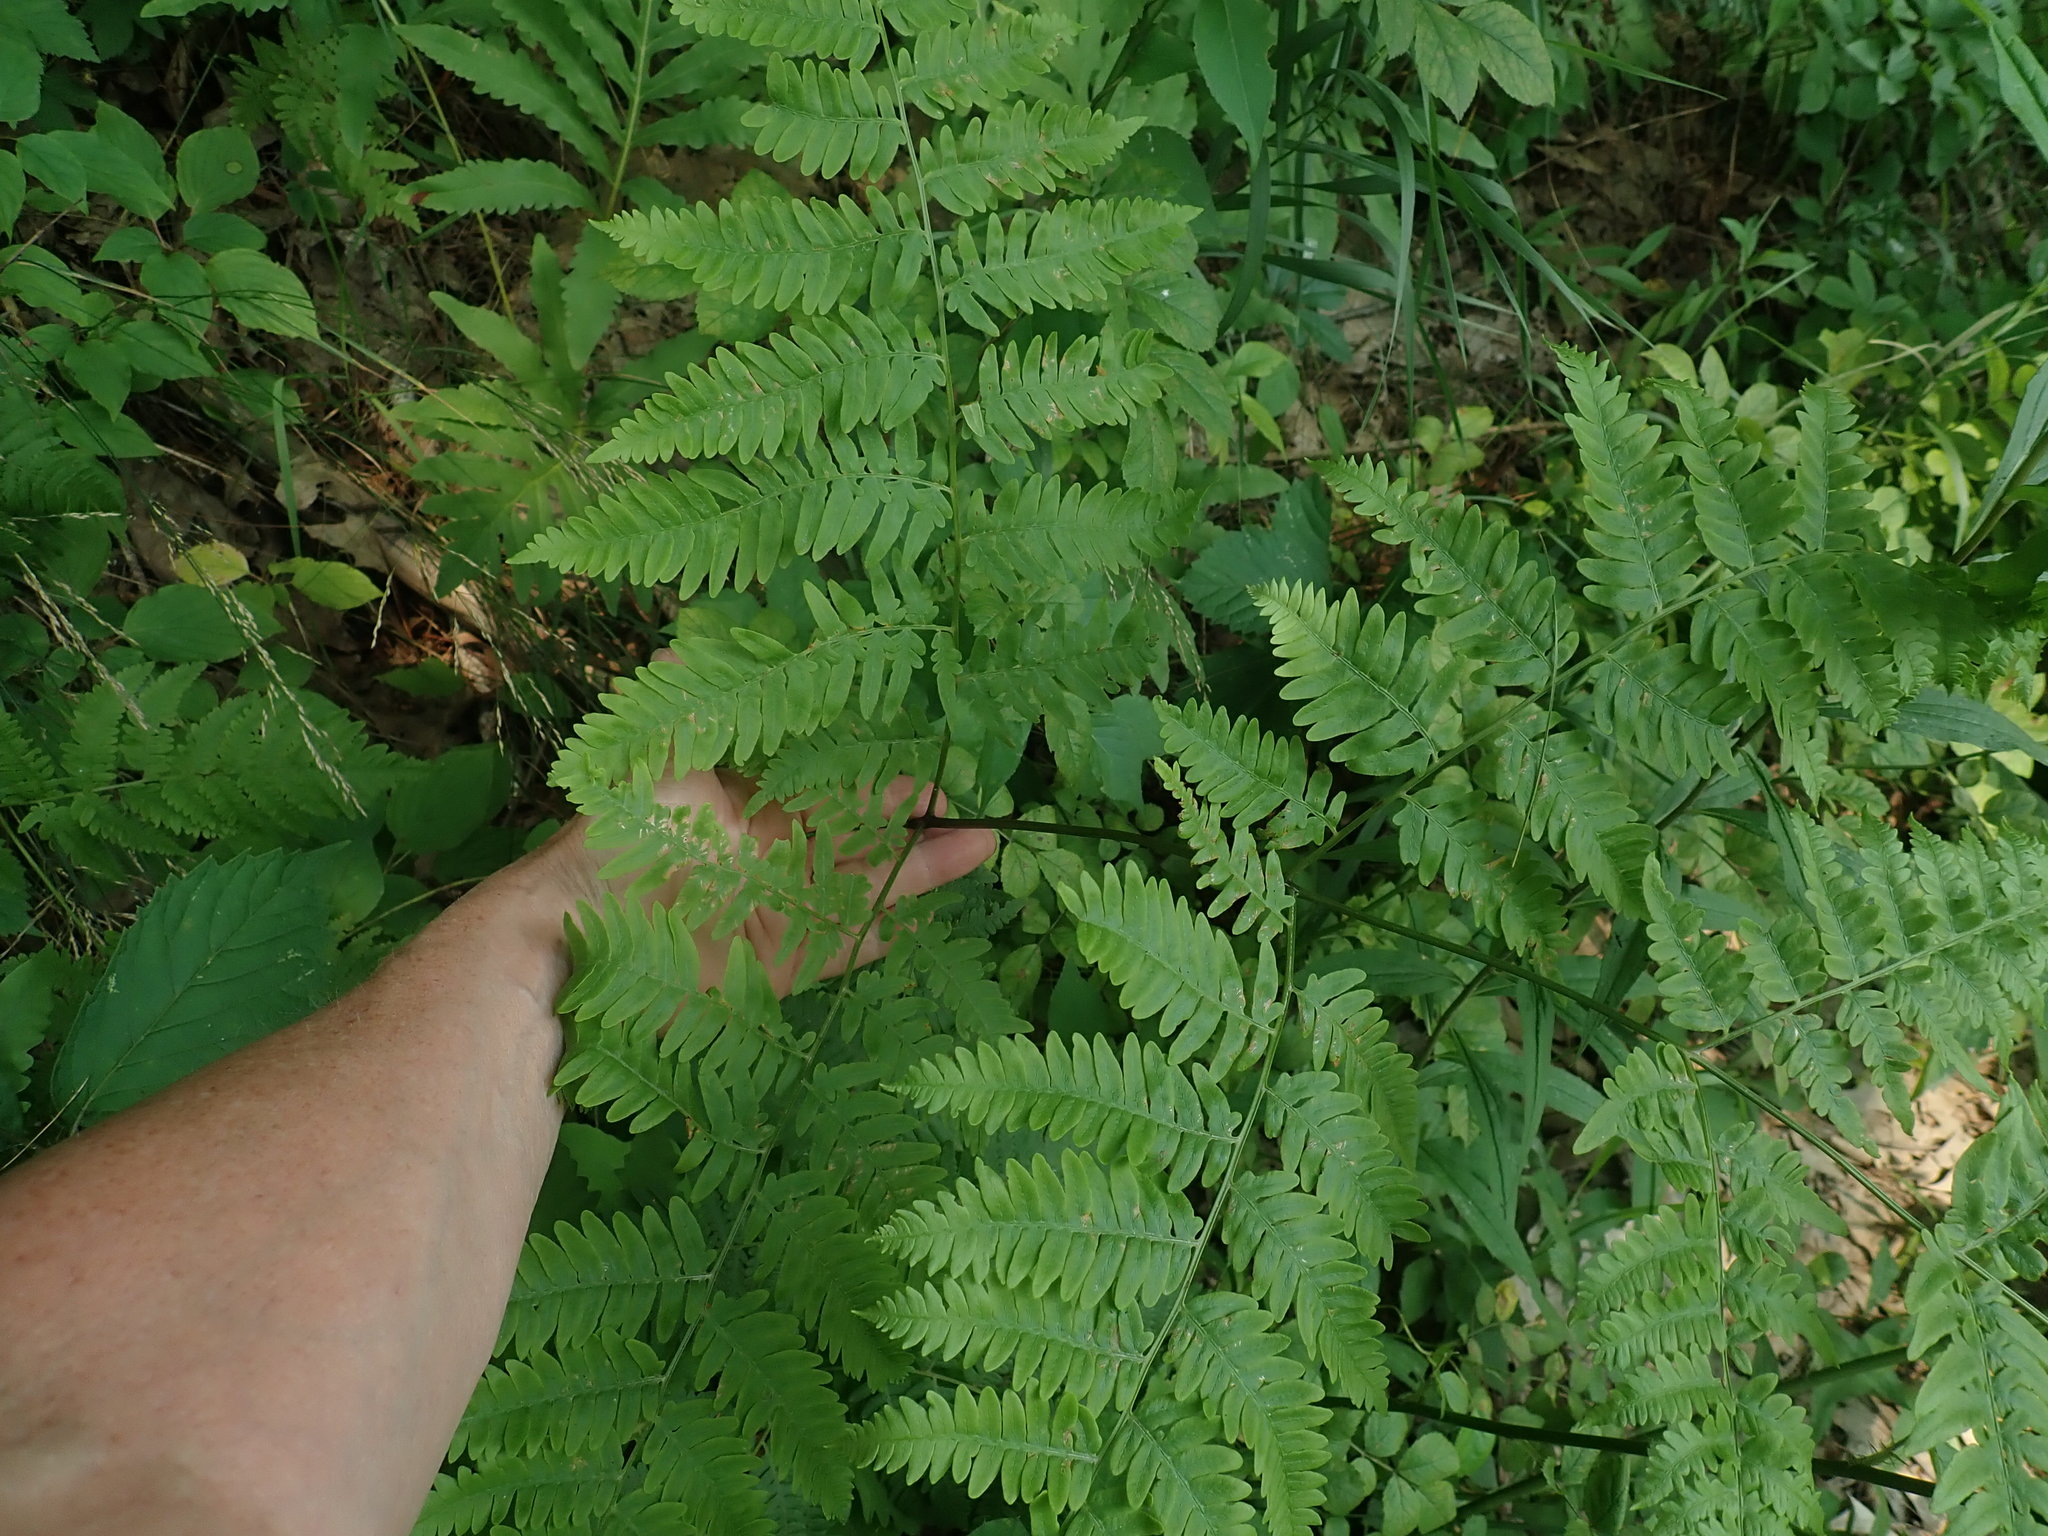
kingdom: Plantae
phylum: Tracheophyta
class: Polypodiopsida
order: Polypodiales
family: Dennstaedtiaceae
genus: Pteridium
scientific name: Pteridium aquilinum
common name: Bracken
